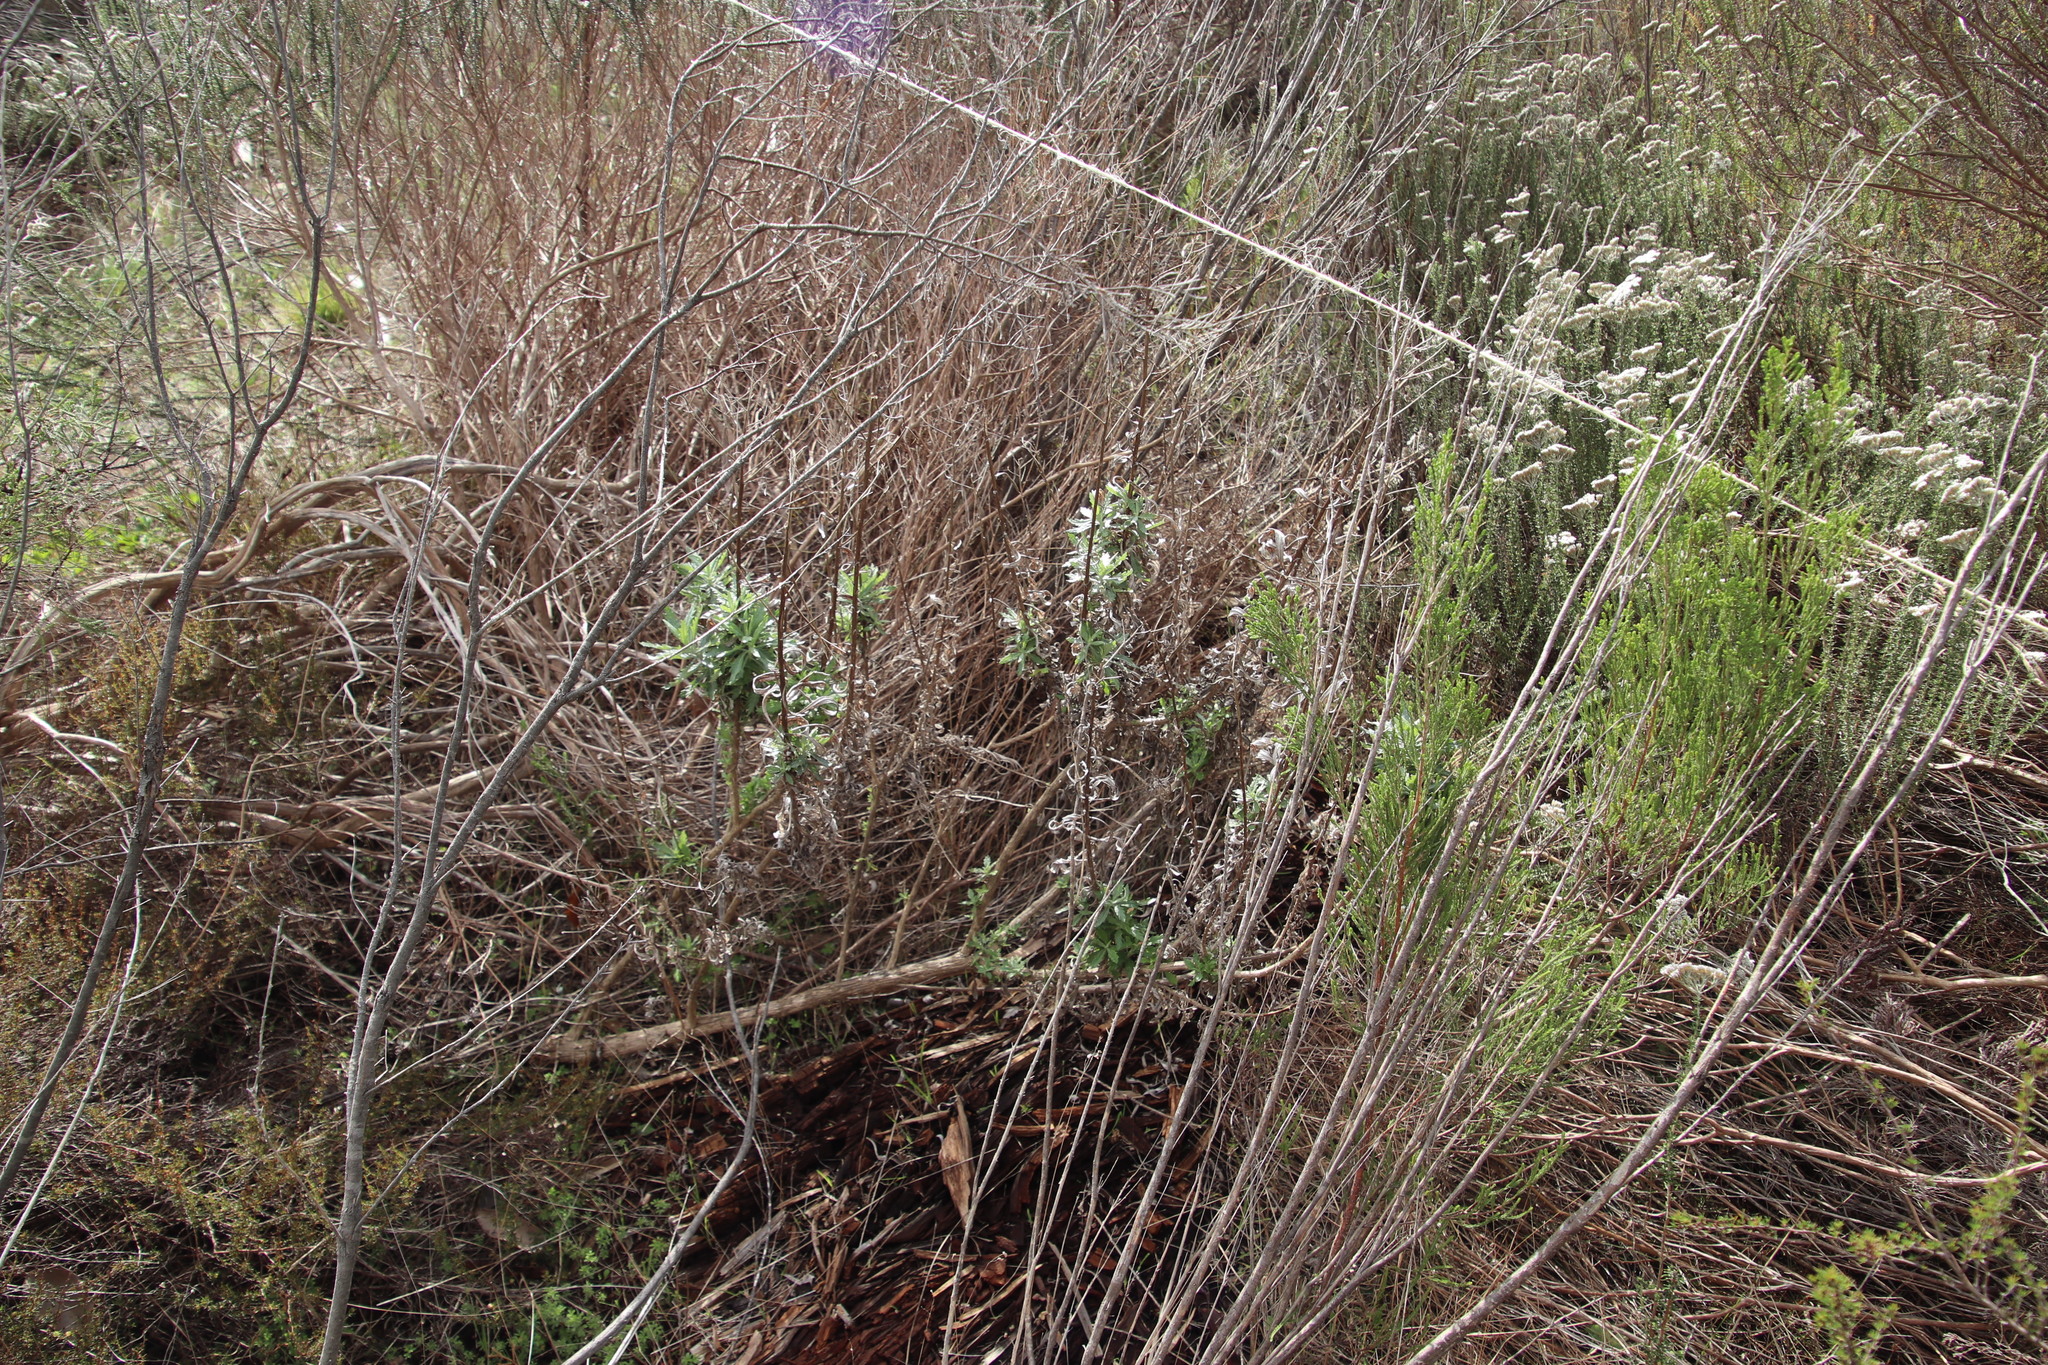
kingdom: Plantae
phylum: Tracheophyta
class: Magnoliopsida
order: Asterales
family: Asteraceae
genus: Senecio
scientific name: Senecio pterophorus
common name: Shoddy ragwort
